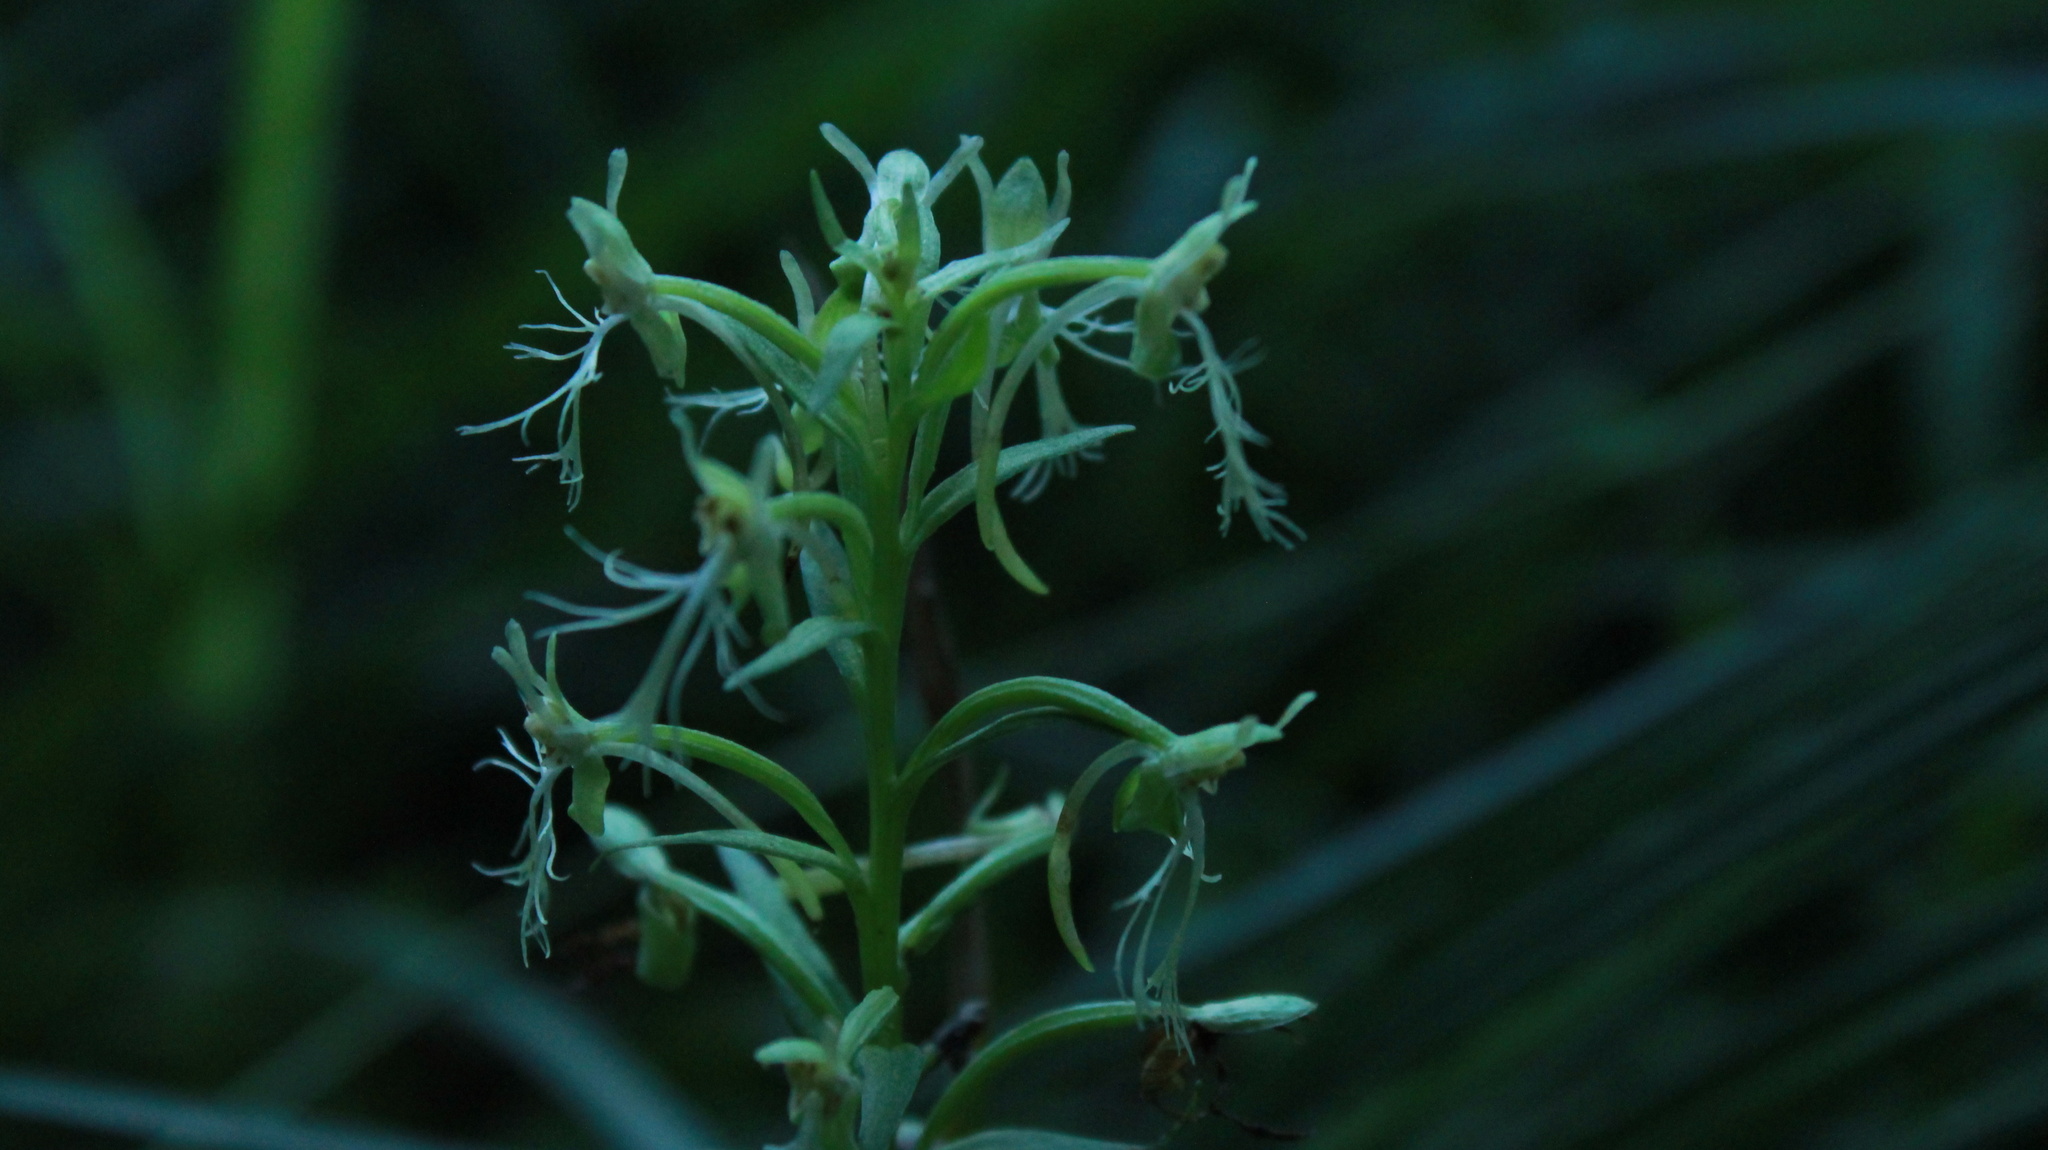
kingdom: Plantae
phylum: Tracheophyta
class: Liliopsida
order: Asparagales
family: Orchidaceae
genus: Platanthera
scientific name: Platanthera lacera
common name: Green fringed orchid
